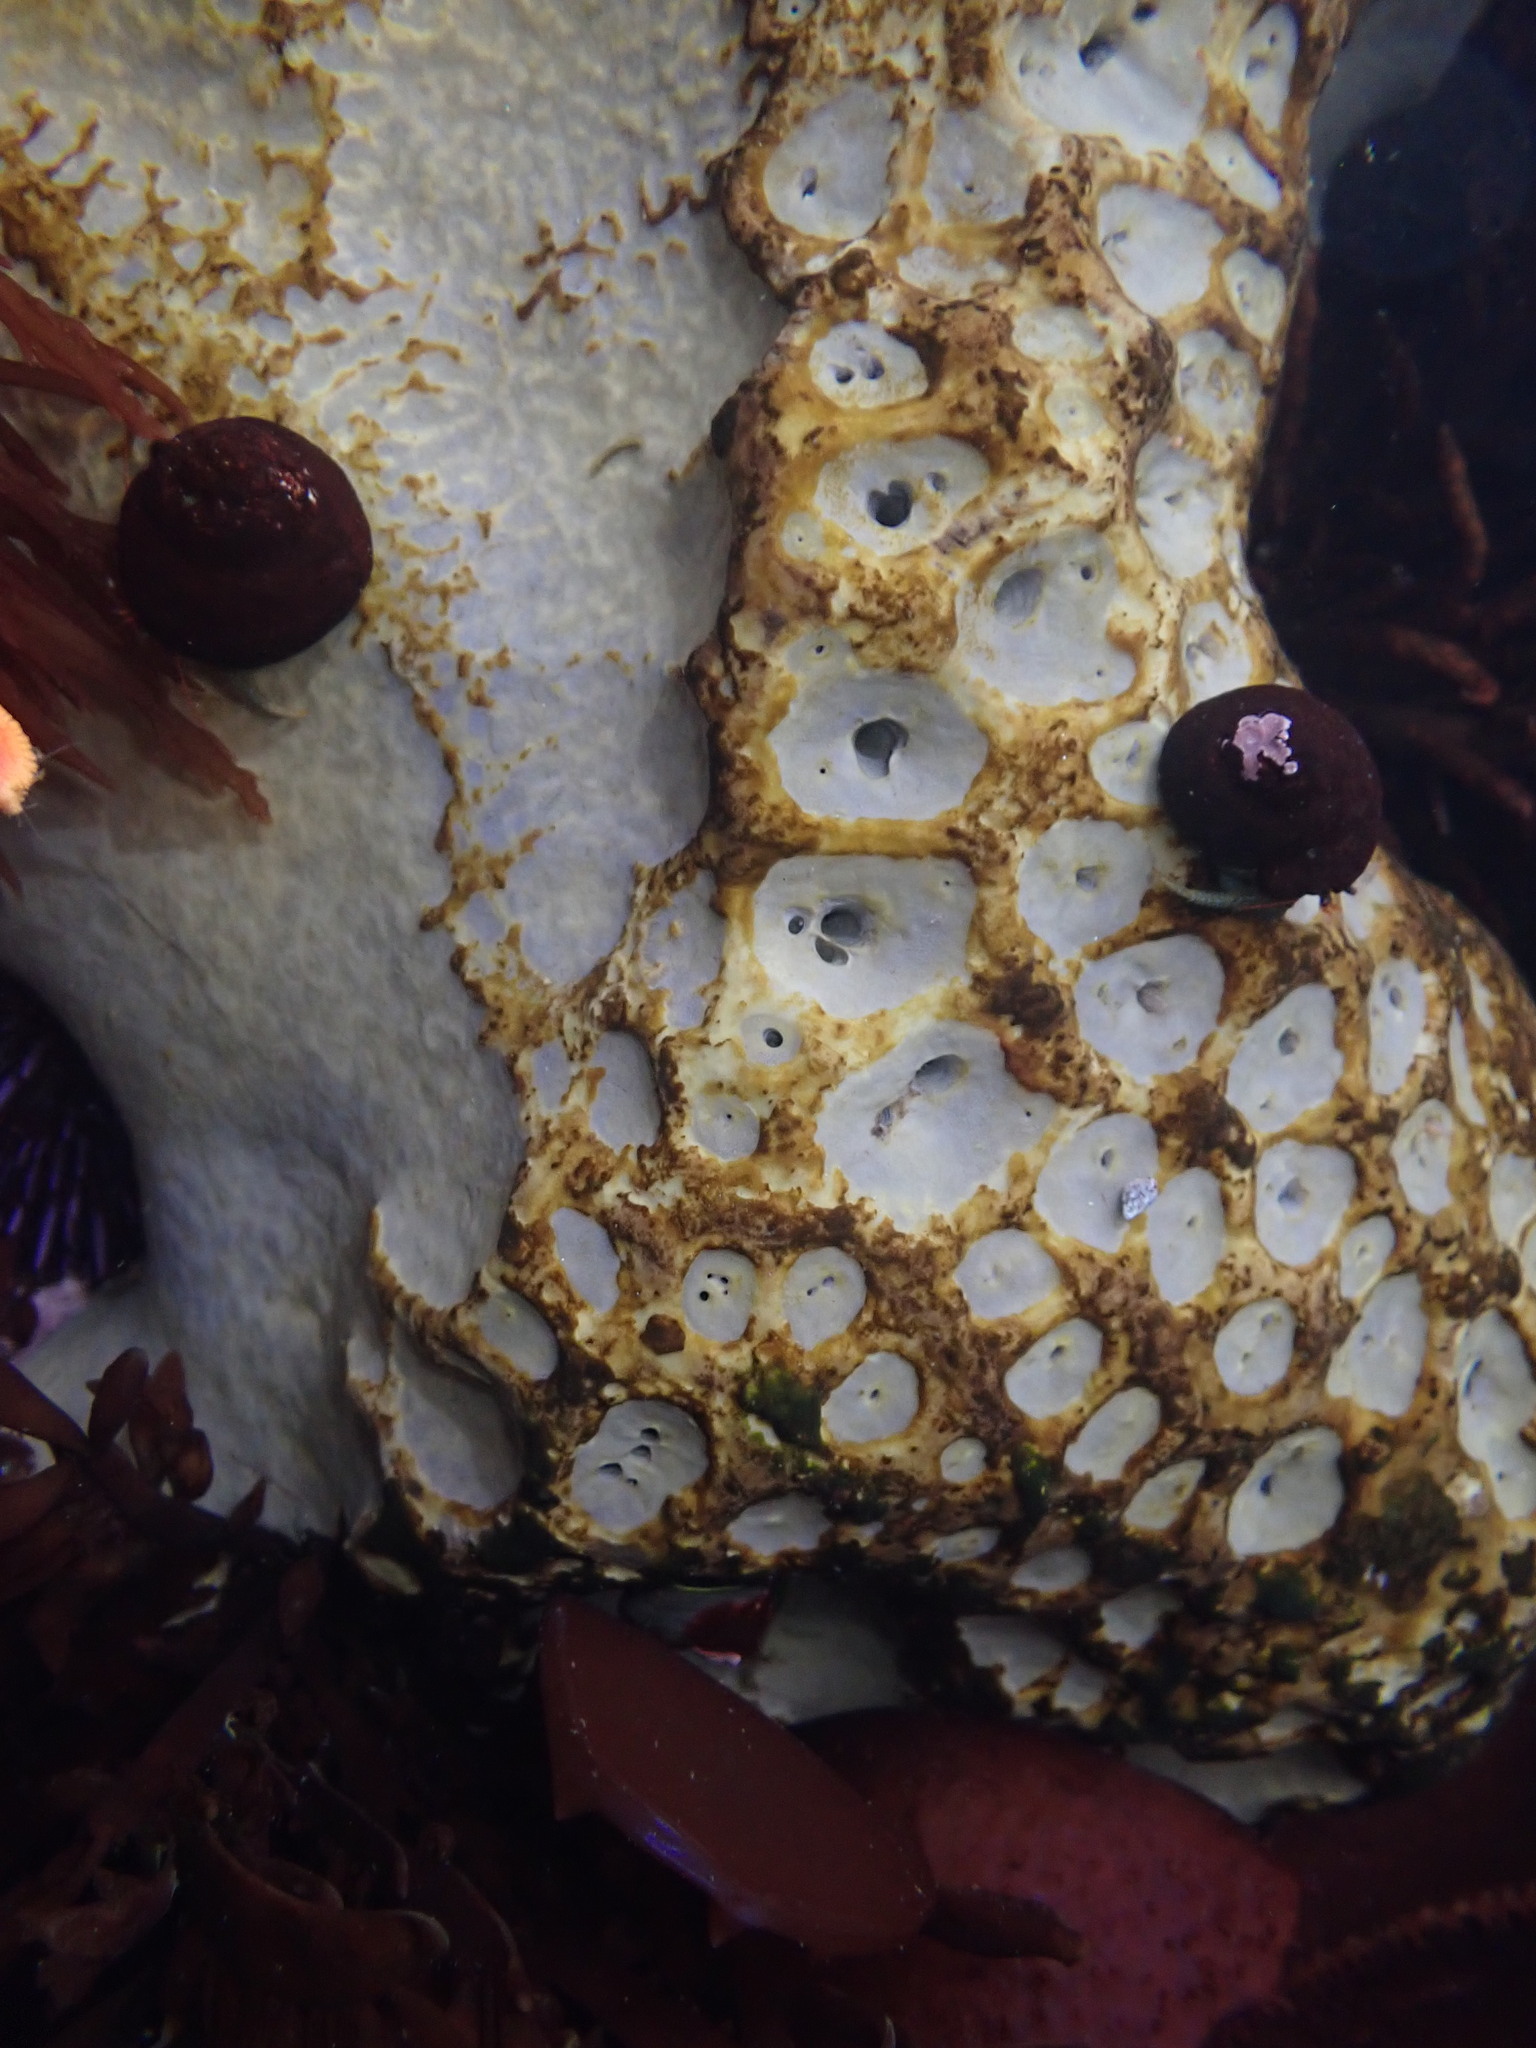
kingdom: Animalia
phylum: Porifera
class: Demospongiae
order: Clionaida
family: Clionaidae
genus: Spheciospongia
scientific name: Spheciospongia confoederata
